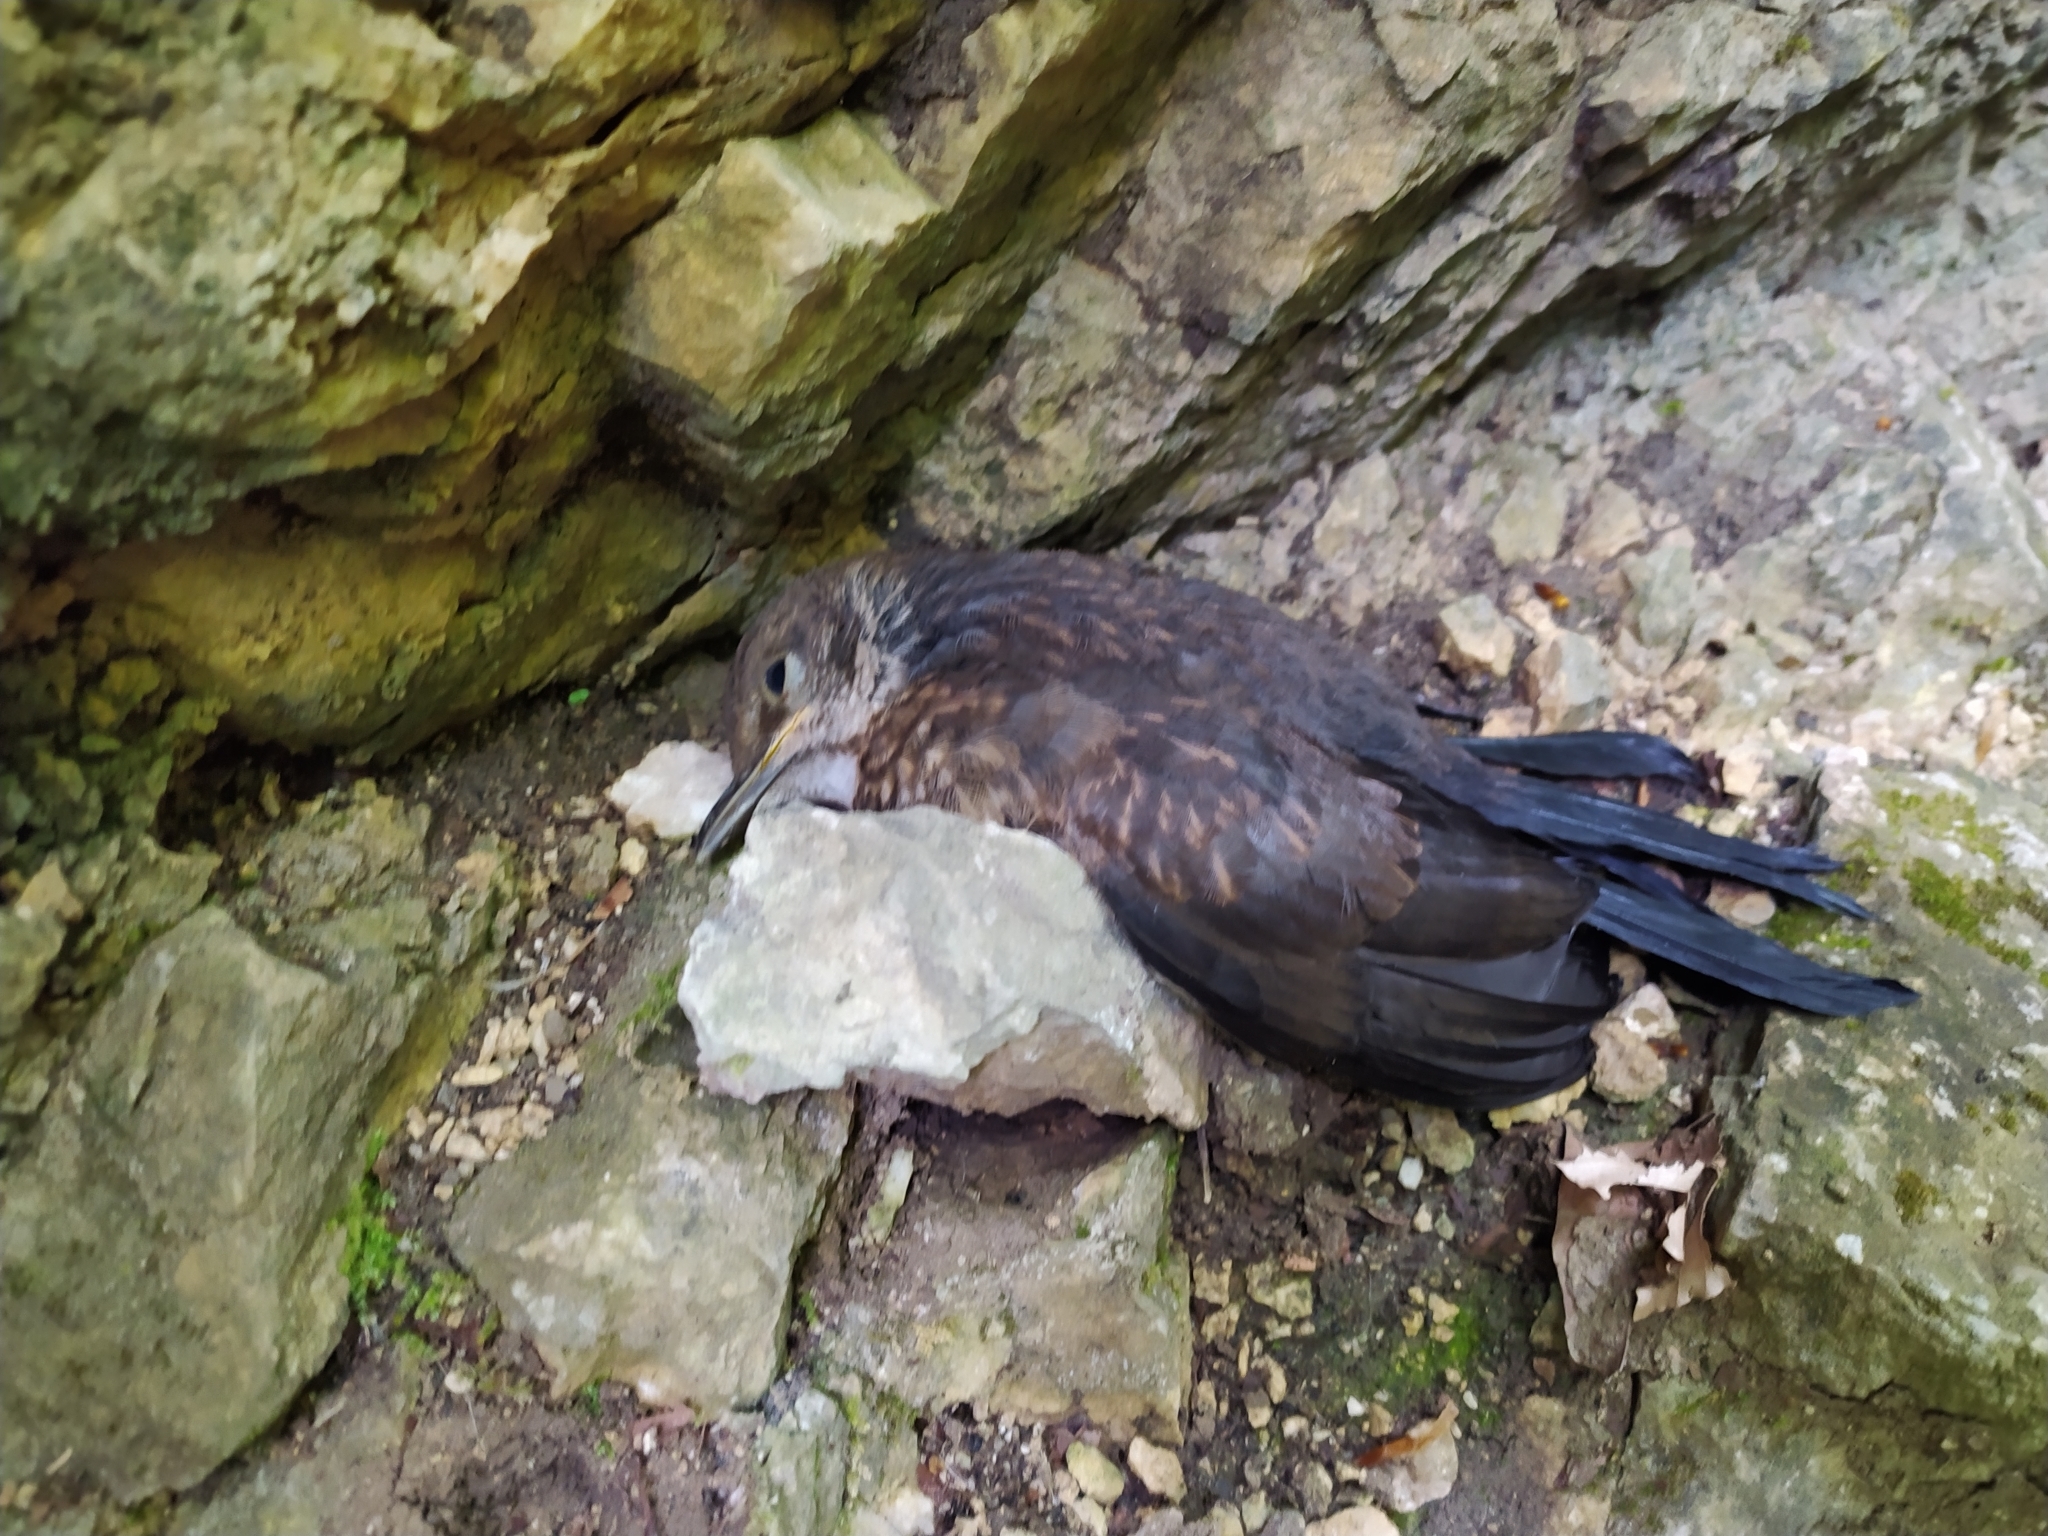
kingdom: Animalia
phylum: Chordata
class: Aves
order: Passeriformes
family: Turdidae
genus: Turdus
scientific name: Turdus merula
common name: Common blackbird
